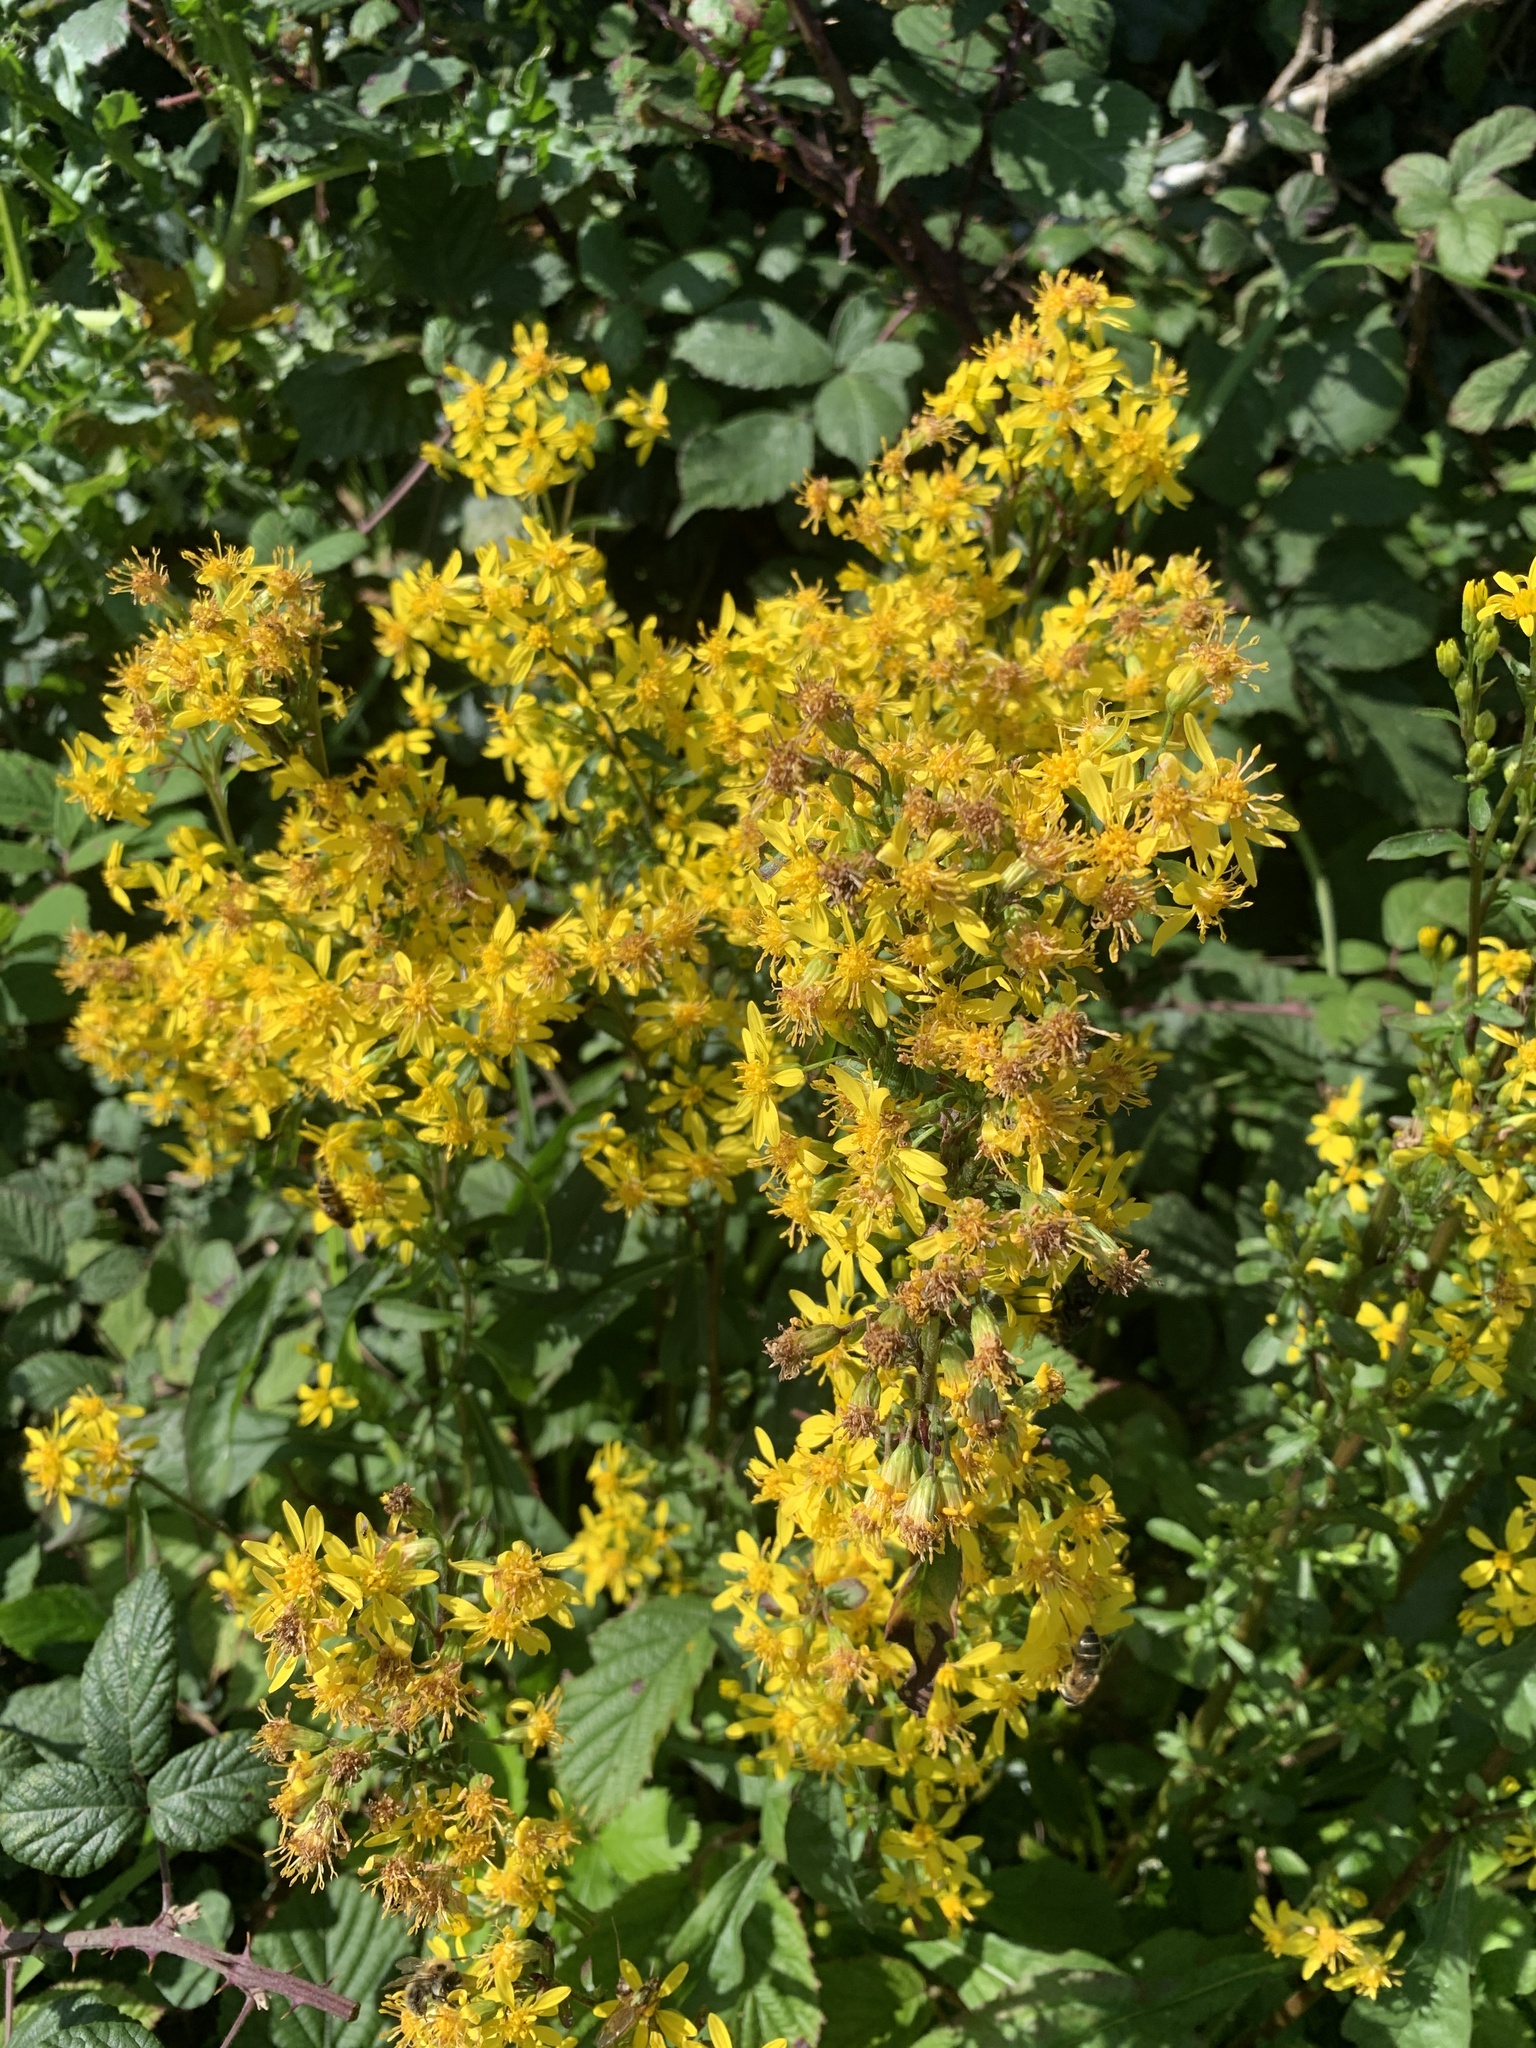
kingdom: Plantae
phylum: Tracheophyta
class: Magnoliopsida
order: Asterales
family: Asteraceae
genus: Solidago
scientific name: Solidago virgaurea
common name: Goldenrod
